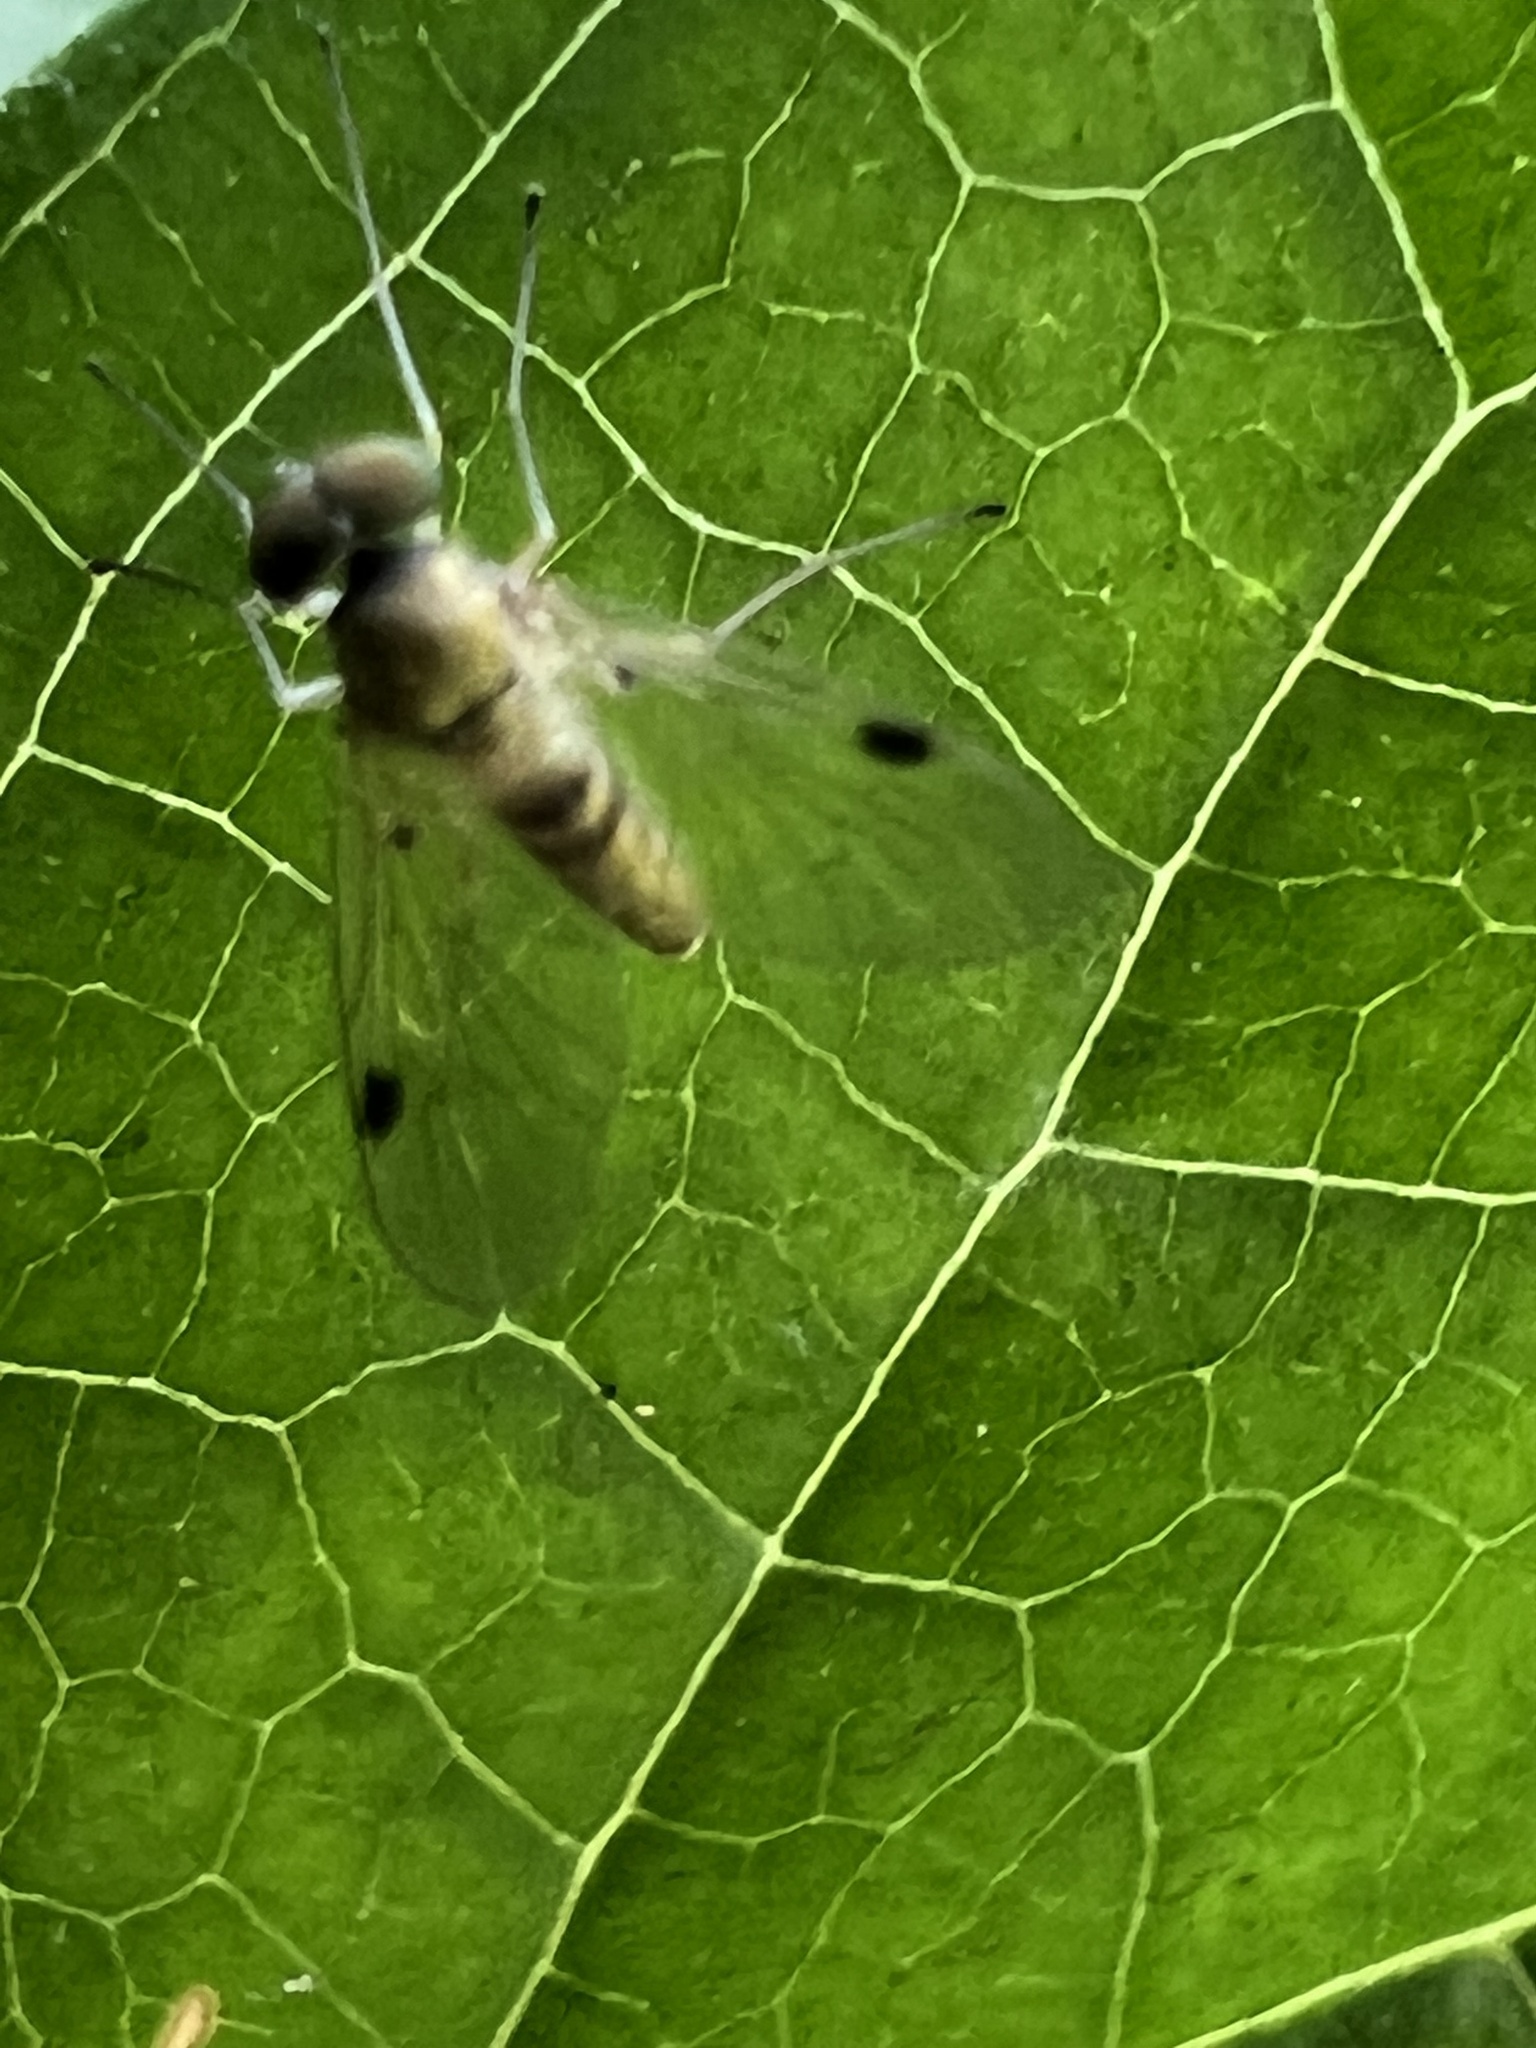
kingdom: Animalia
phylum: Arthropoda
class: Insecta
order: Diptera
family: Rhagionidae
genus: Chrysopilus
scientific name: Chrysopilus modestus
